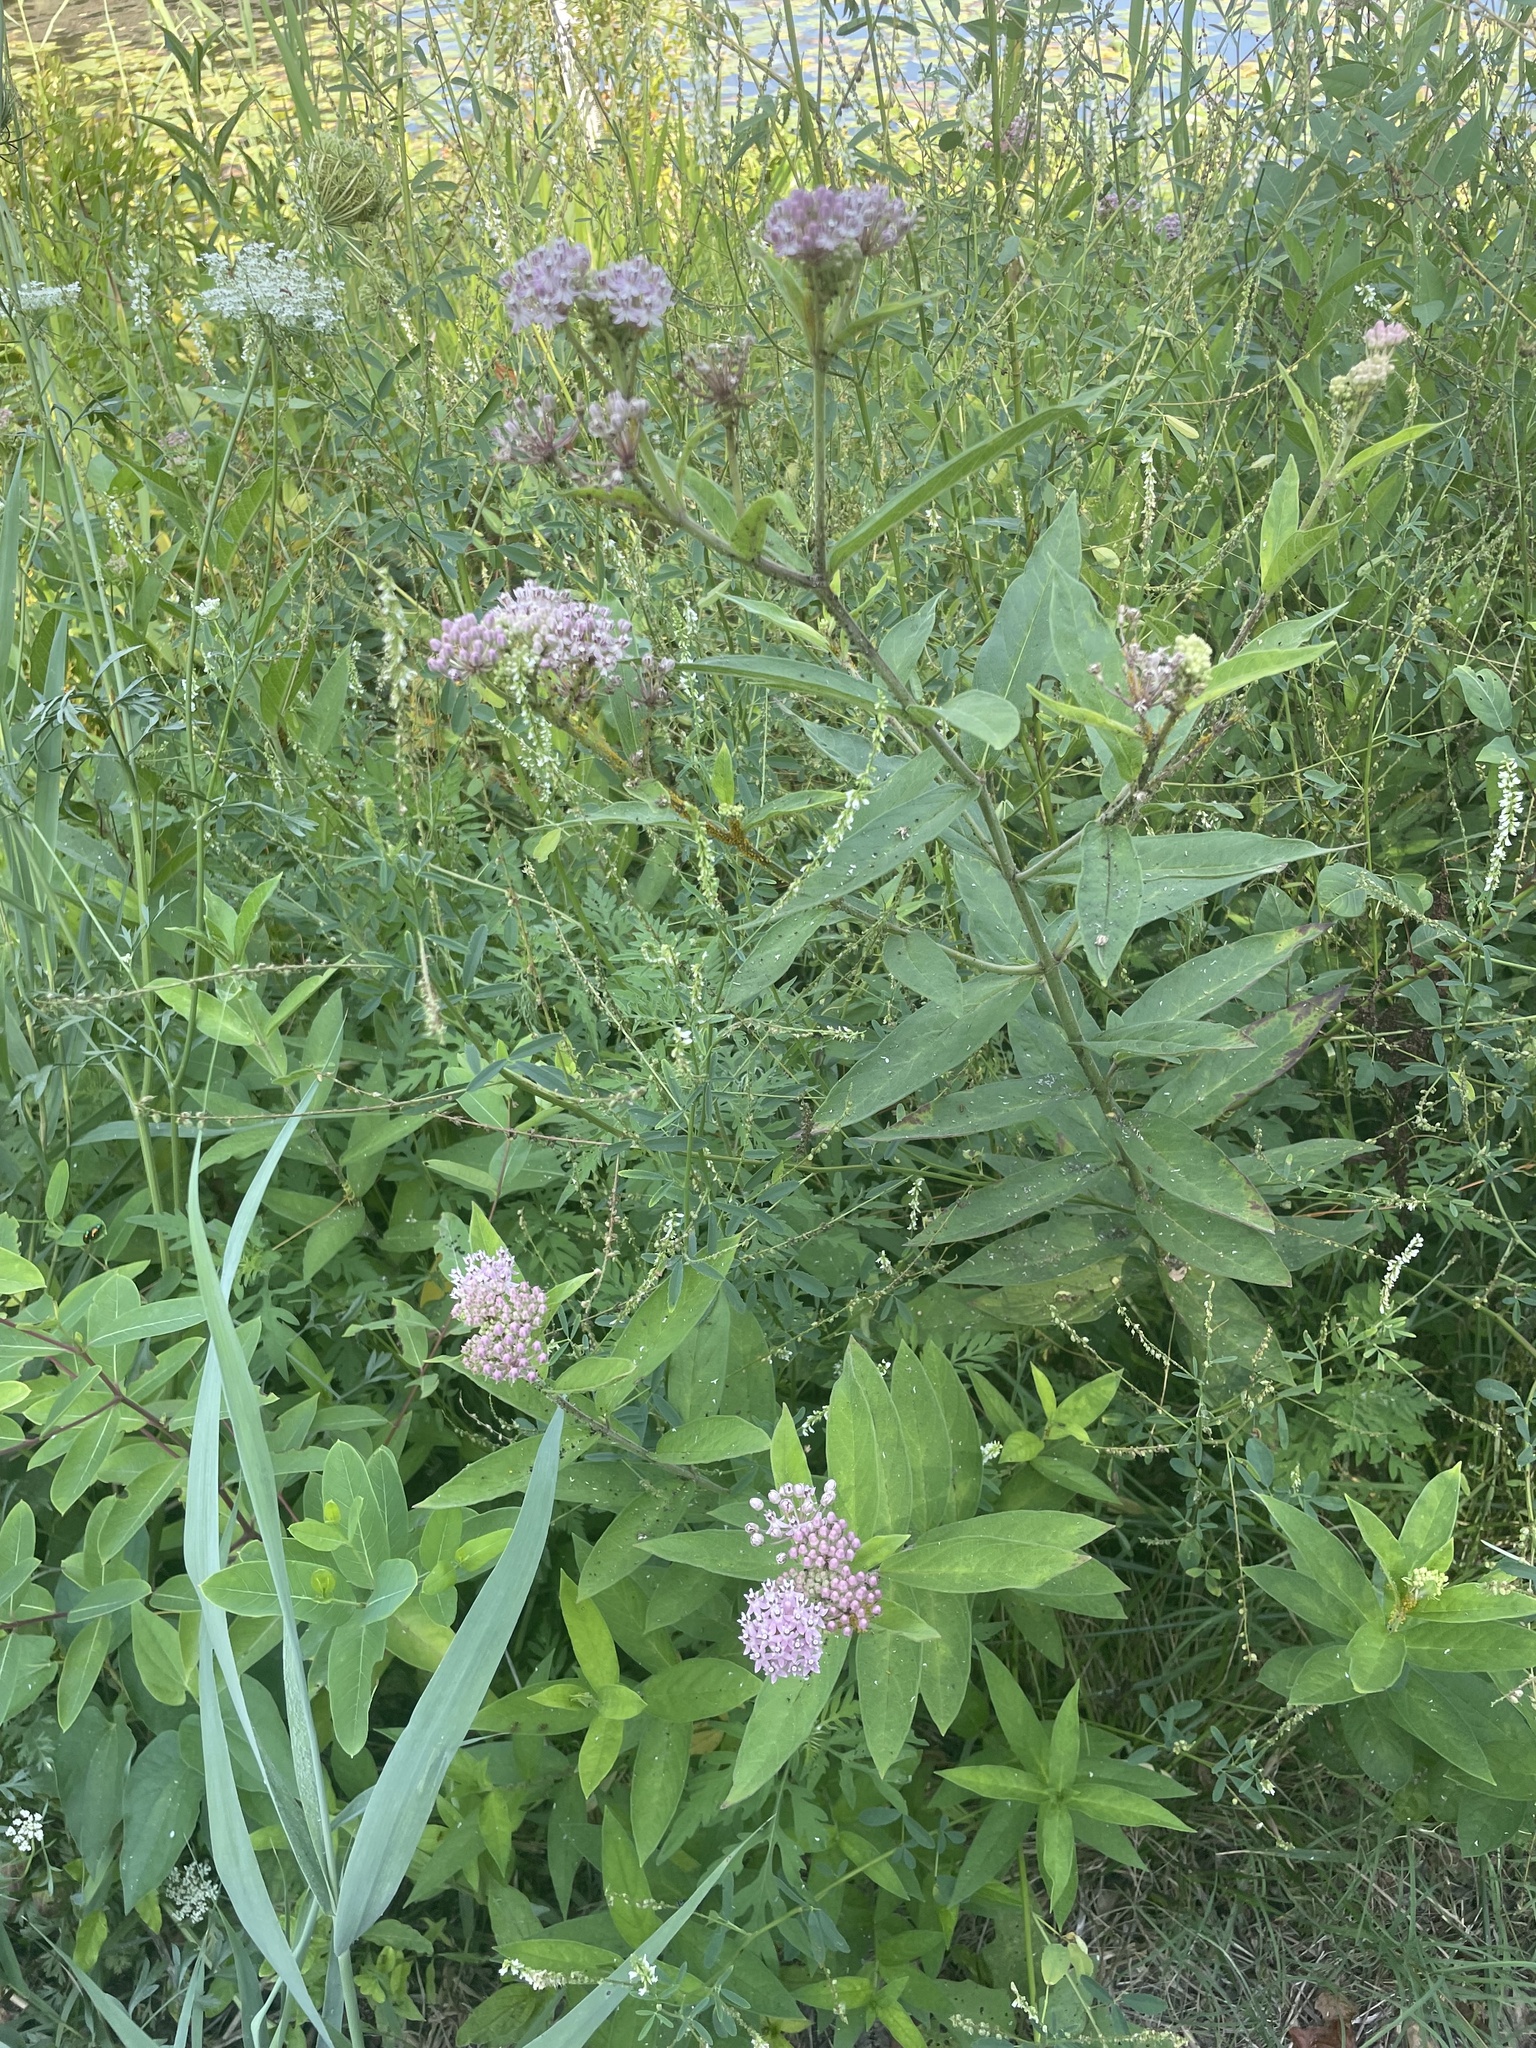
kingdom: Plantae
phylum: Tracheophyta
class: Magnoliopsida
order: Gentianales
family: Apocynaceae
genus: Asclepias
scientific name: Asclepias incarnata
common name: Swamp milkweed
